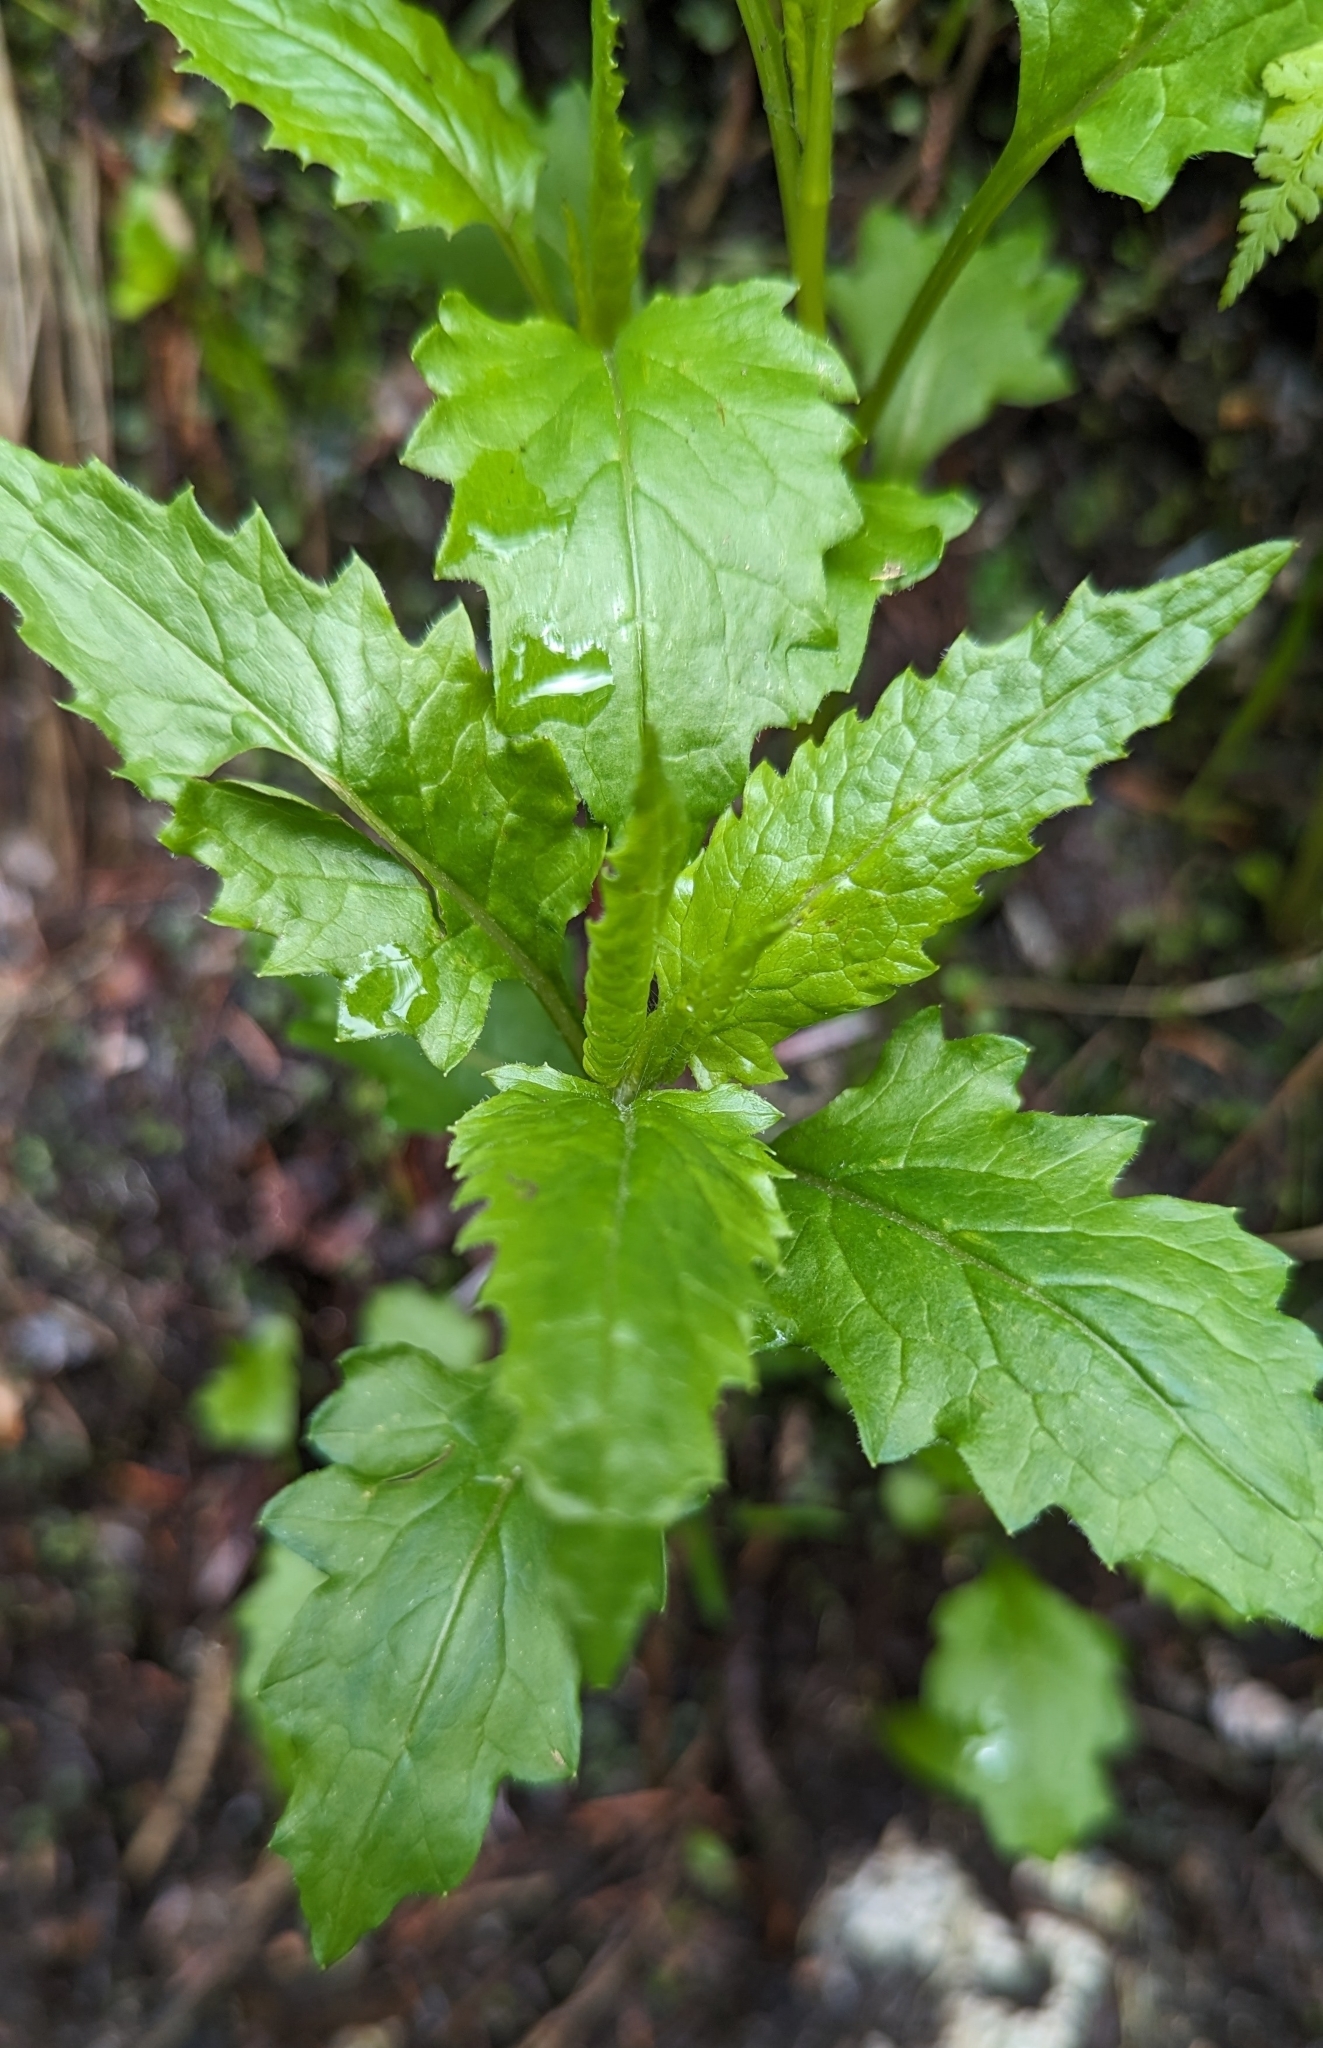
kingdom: Plantae
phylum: Tracheophyta
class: Magnoliopsida
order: Asterales
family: Asteraceae
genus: Senecio
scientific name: Senecio triangularis
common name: Arrowleaf butterweed
